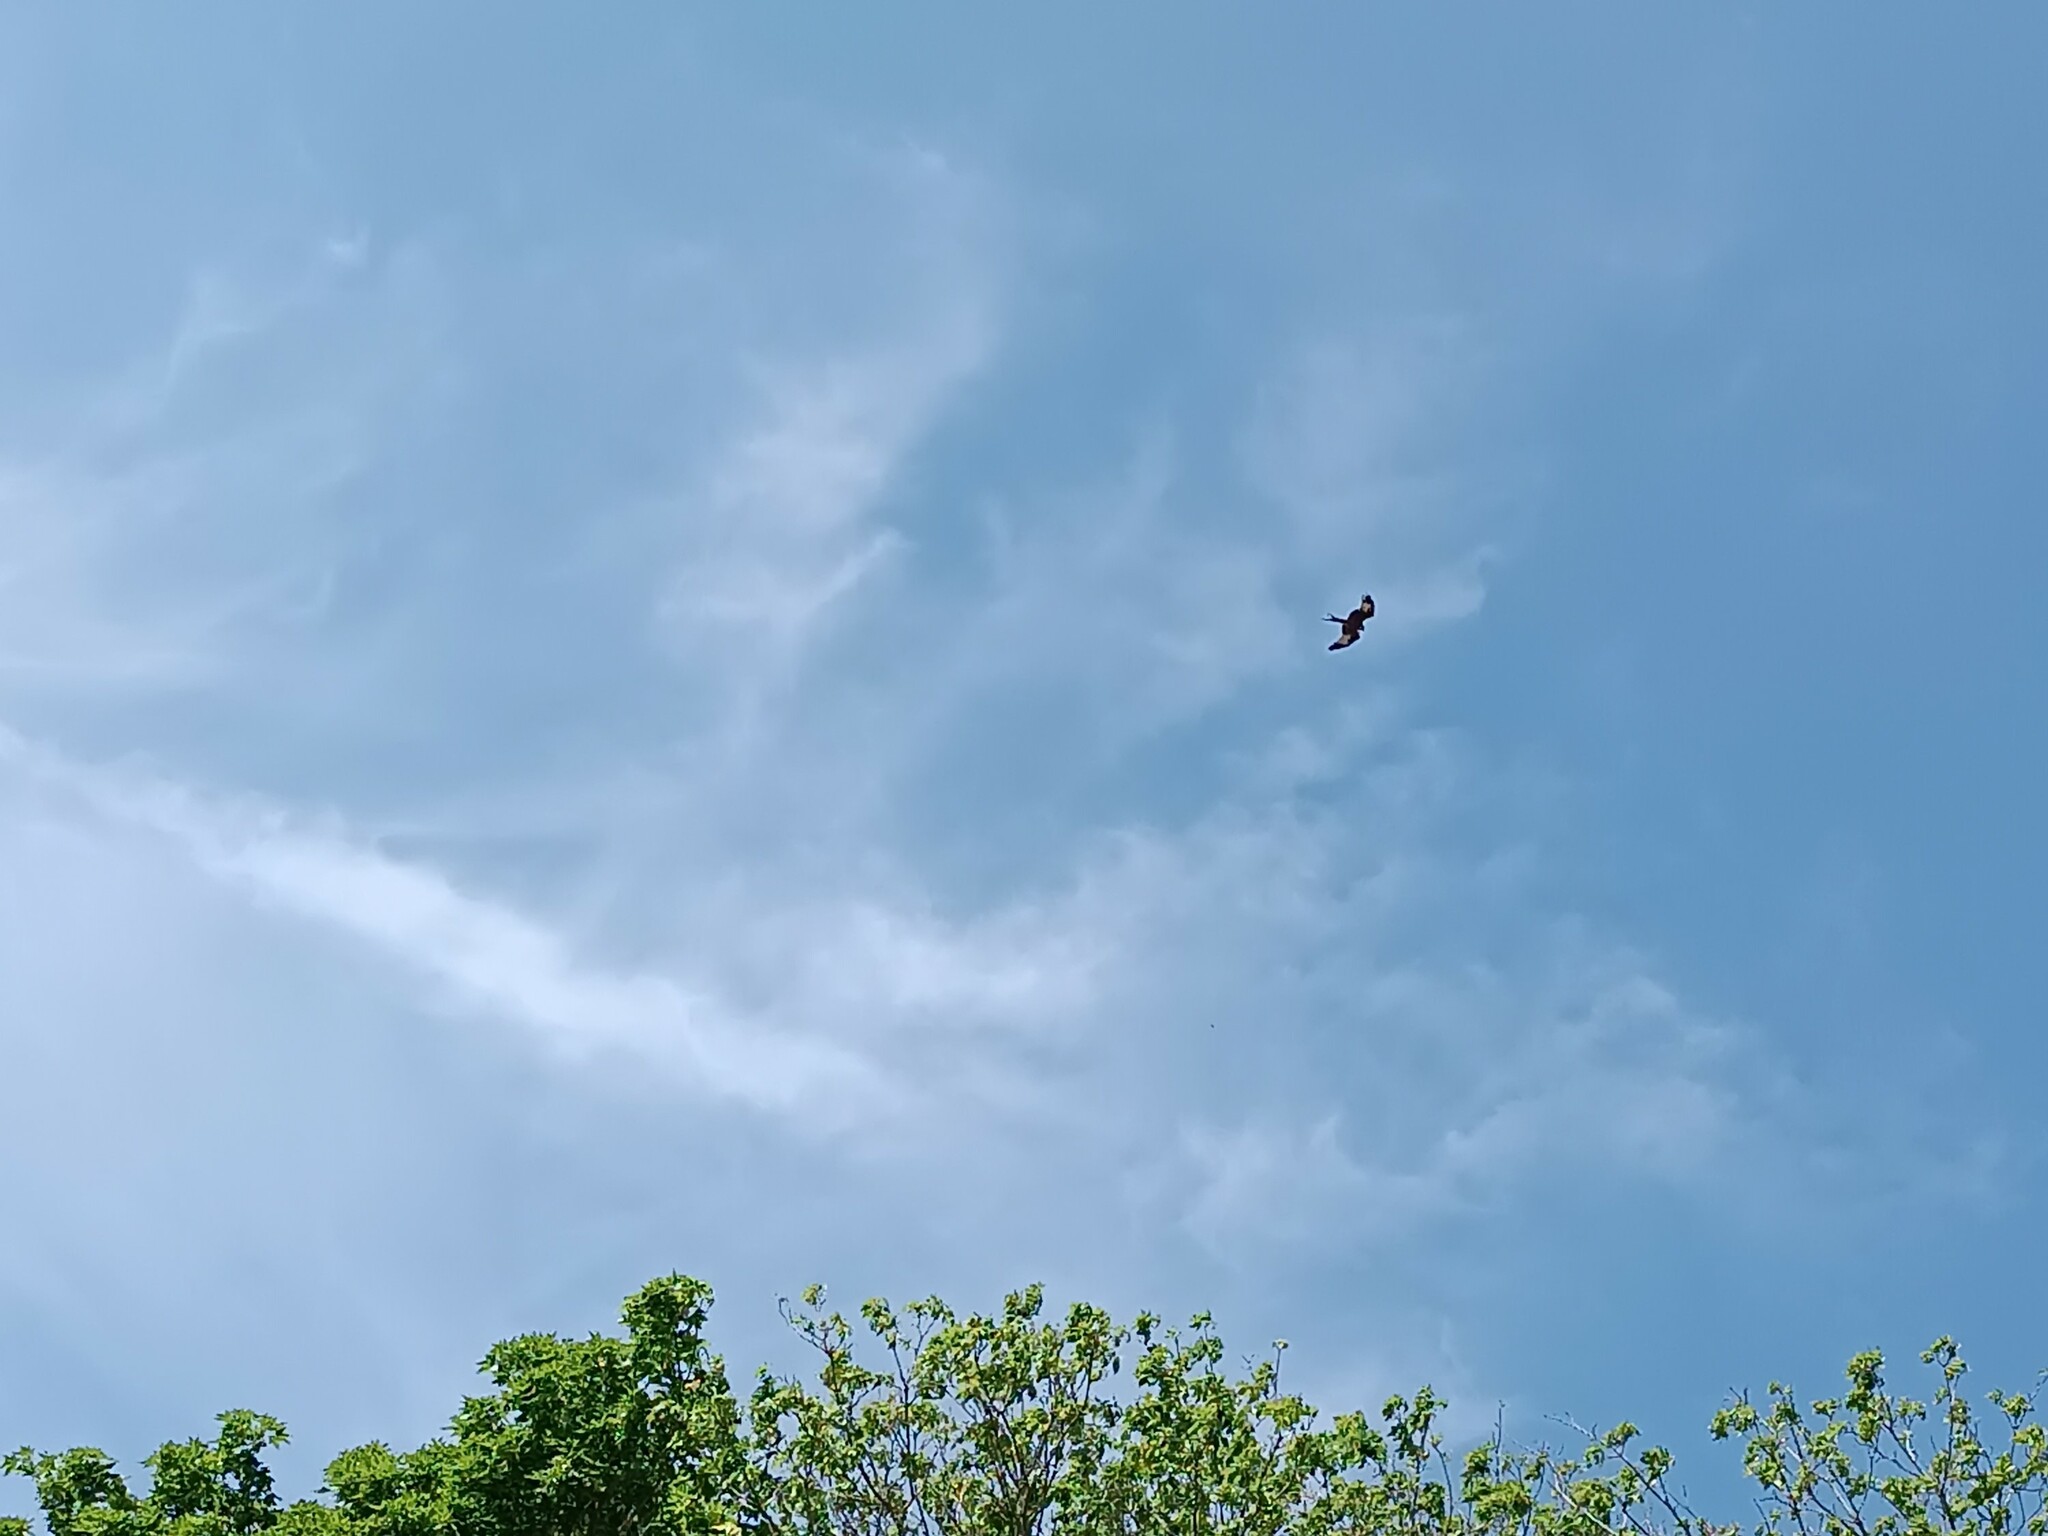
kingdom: Animalia
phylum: Chordata
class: Aves
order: Accipitriformes
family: Accipitridae
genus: Milvus
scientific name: Milvus milvus
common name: Red kite
